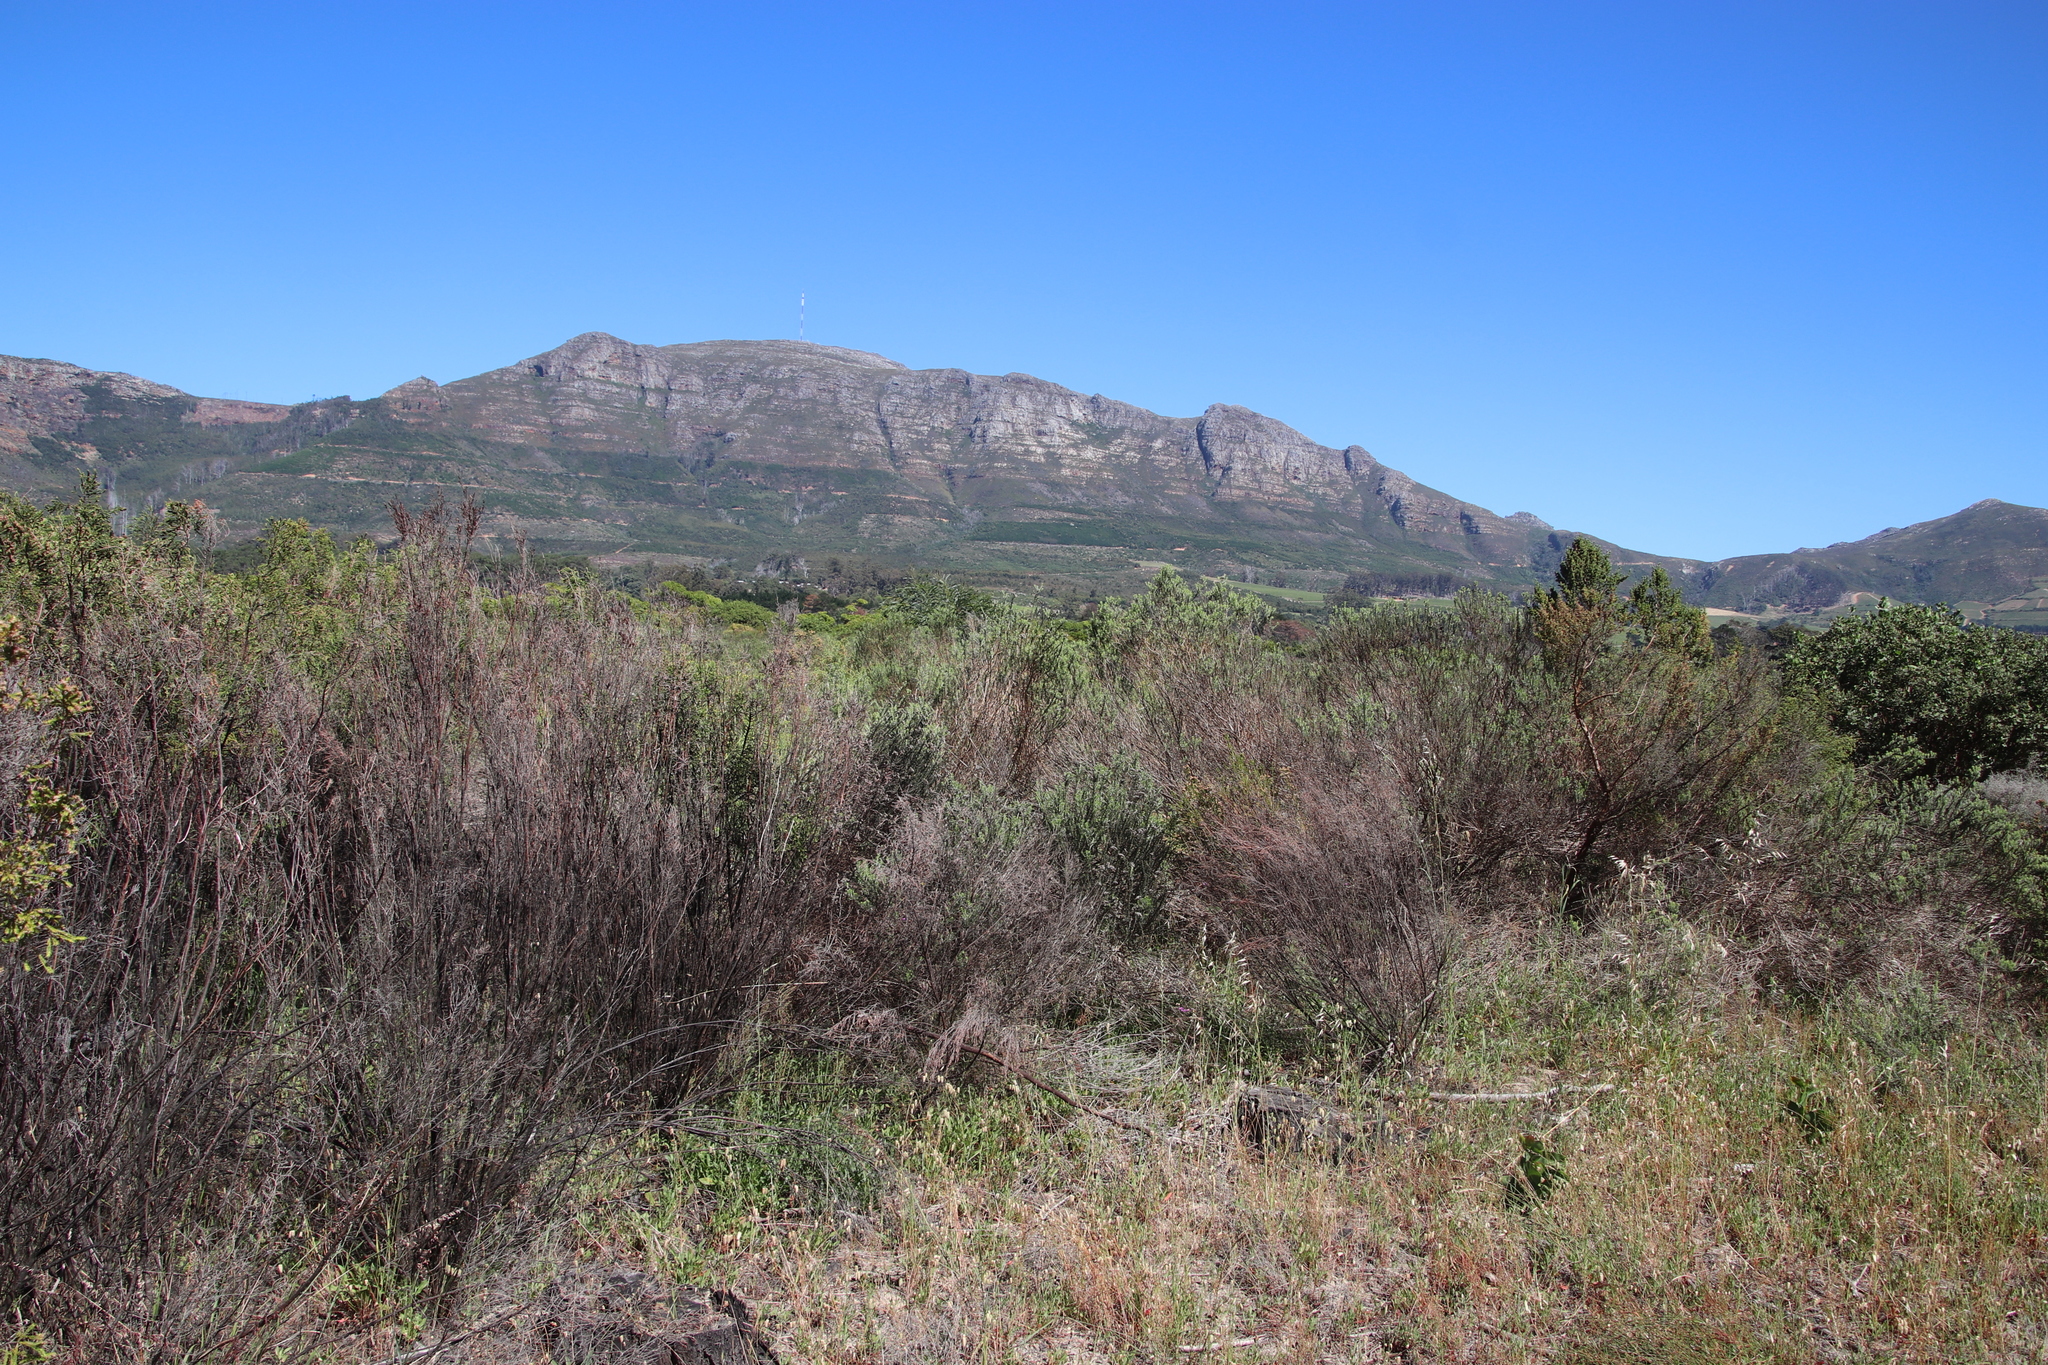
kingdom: Plantae
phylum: Tracheophyta
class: Magnoliopsida
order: Malvales
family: Thymelaeaceae
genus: Passerina
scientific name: Passerina corymbosa
